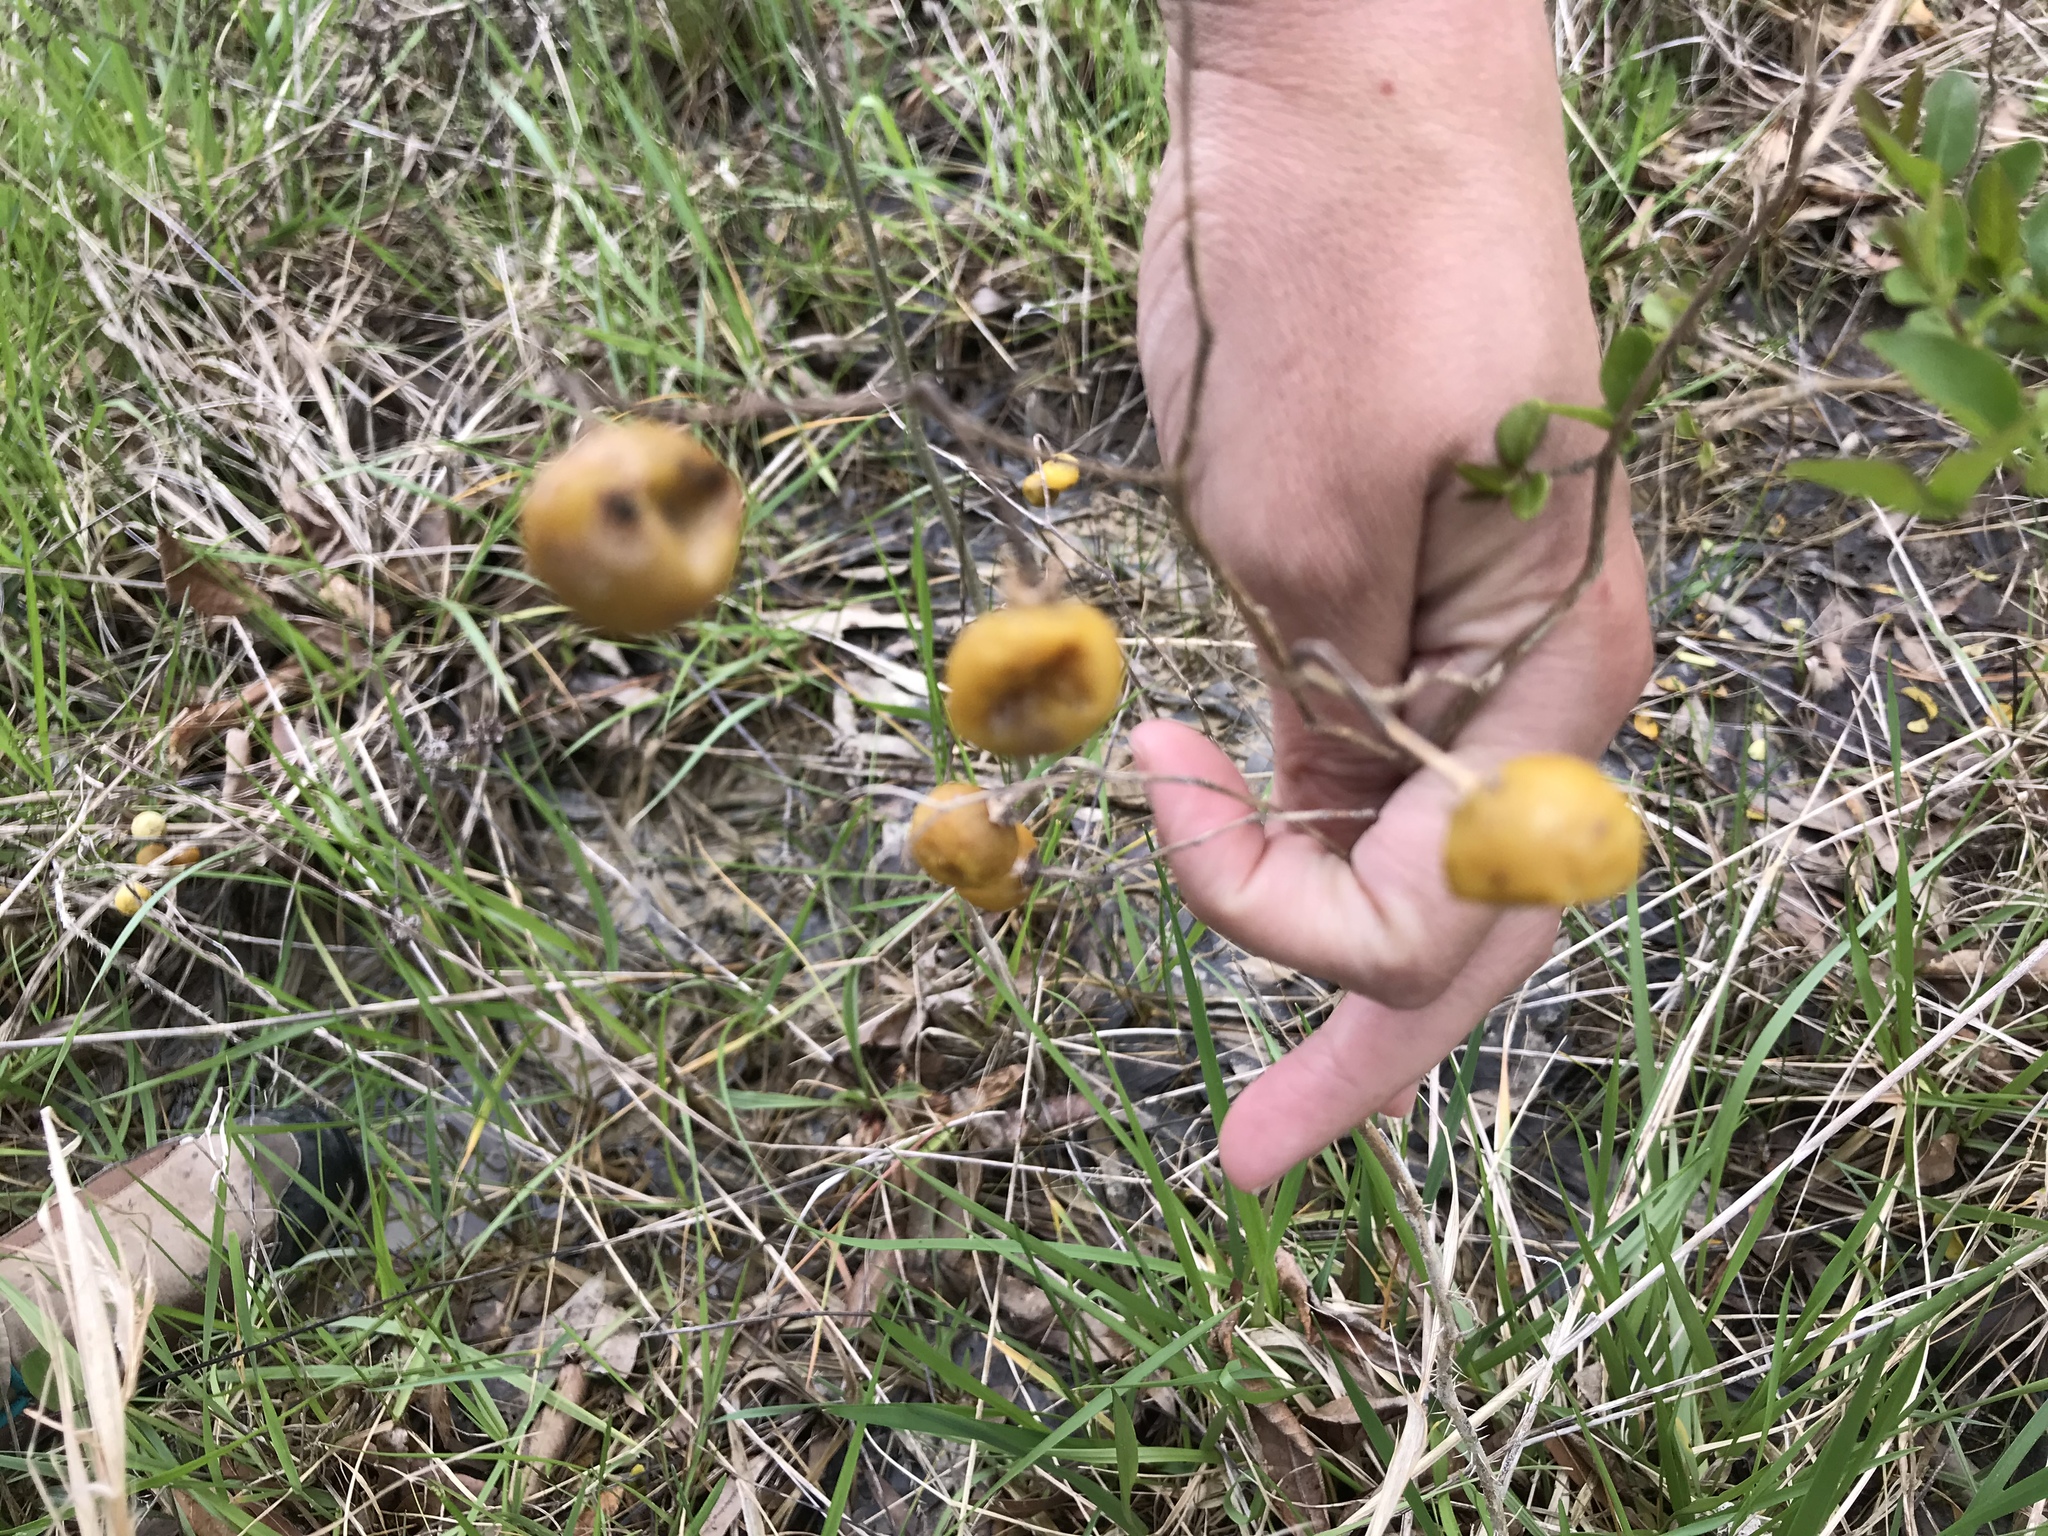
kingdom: Plantae
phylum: Tracheophyta
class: Magnoliopsida
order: Solanales
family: Solanaceae
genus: Solanum
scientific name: Solanum carolinense
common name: Horse-nettle
